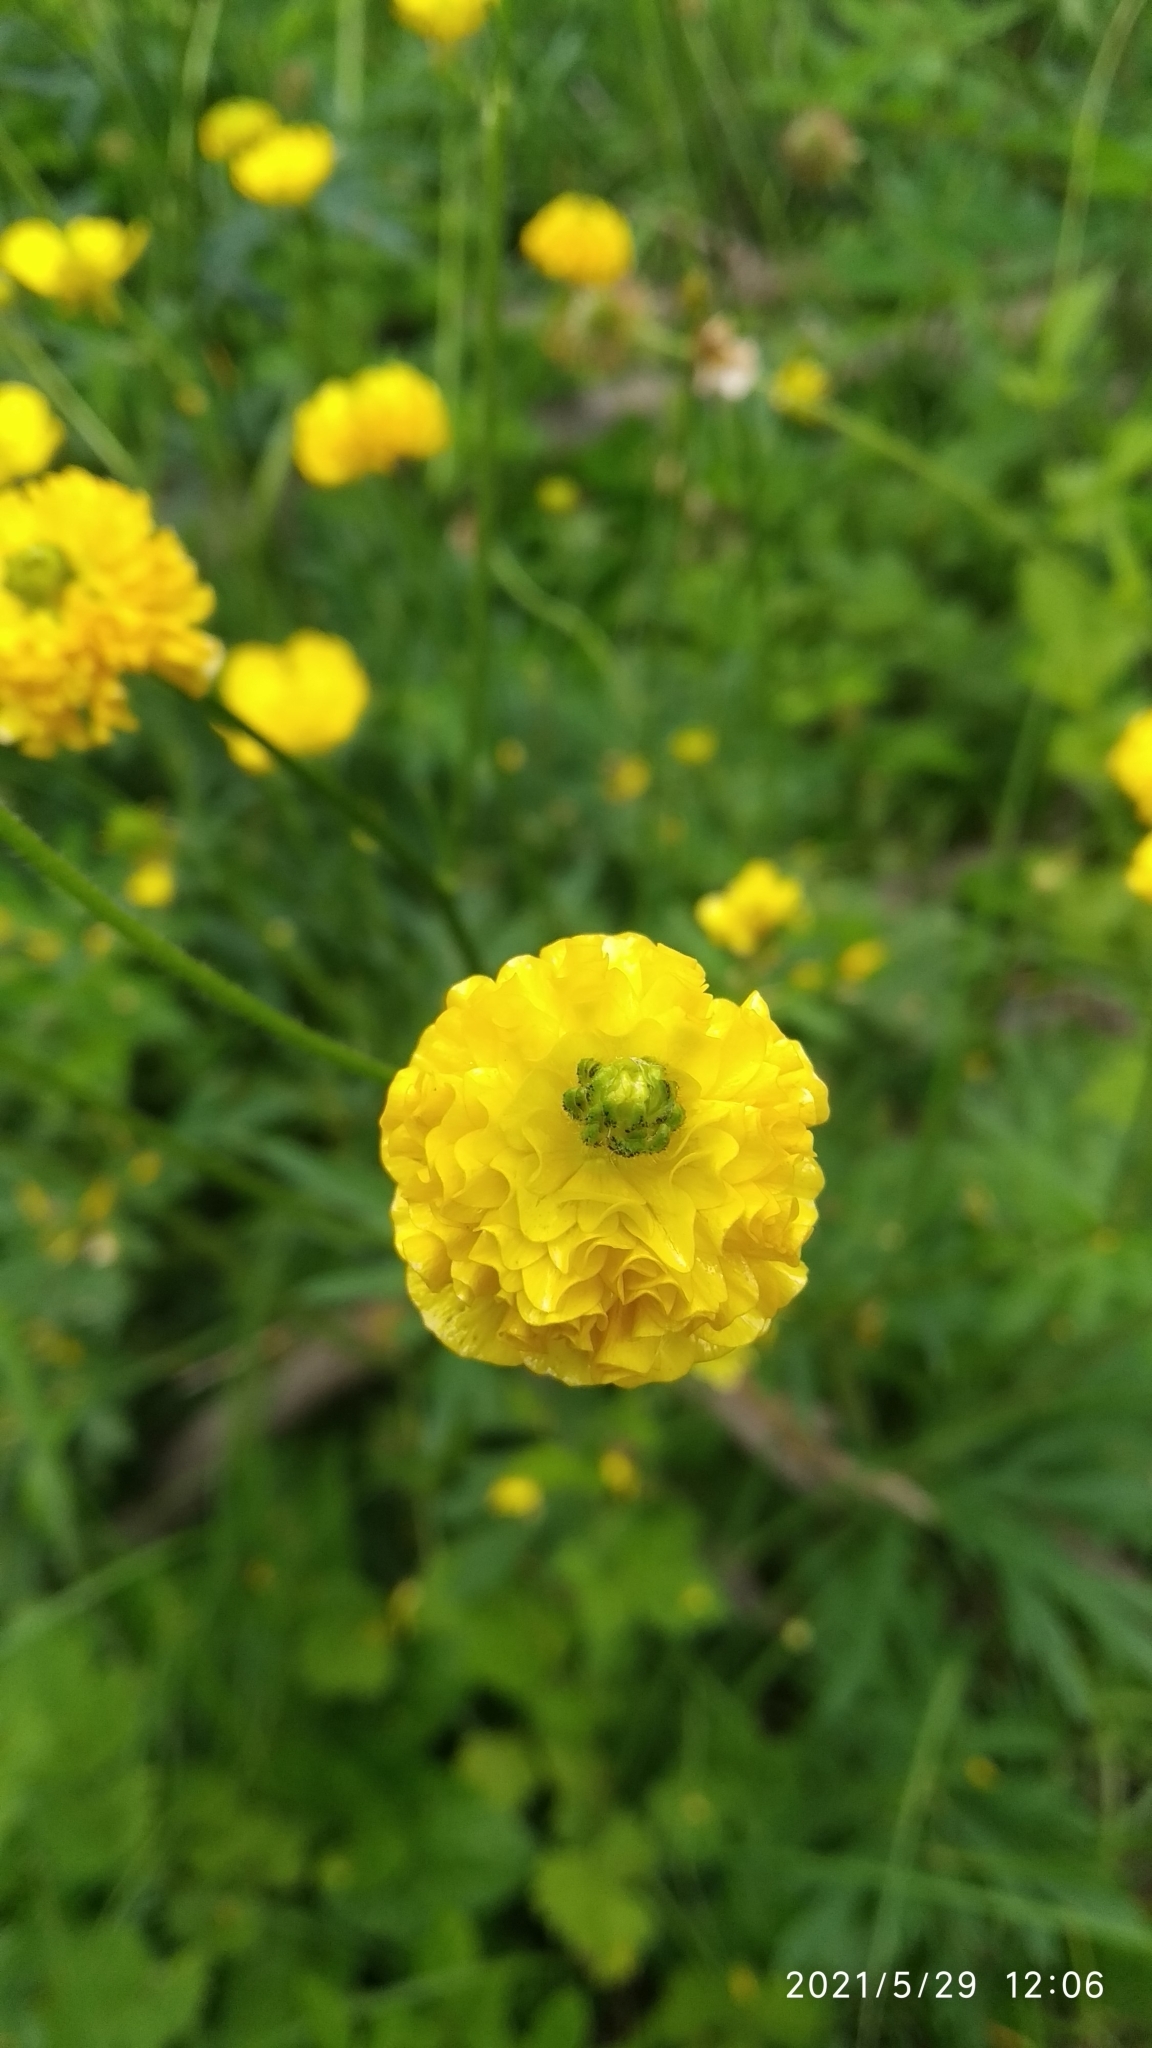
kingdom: Plantae
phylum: Tracheophyta
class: Magnoliopsida
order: Ranunculales
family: Ranunculaceae
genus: Ranunculus
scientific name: Ranunculus polyanthemos
